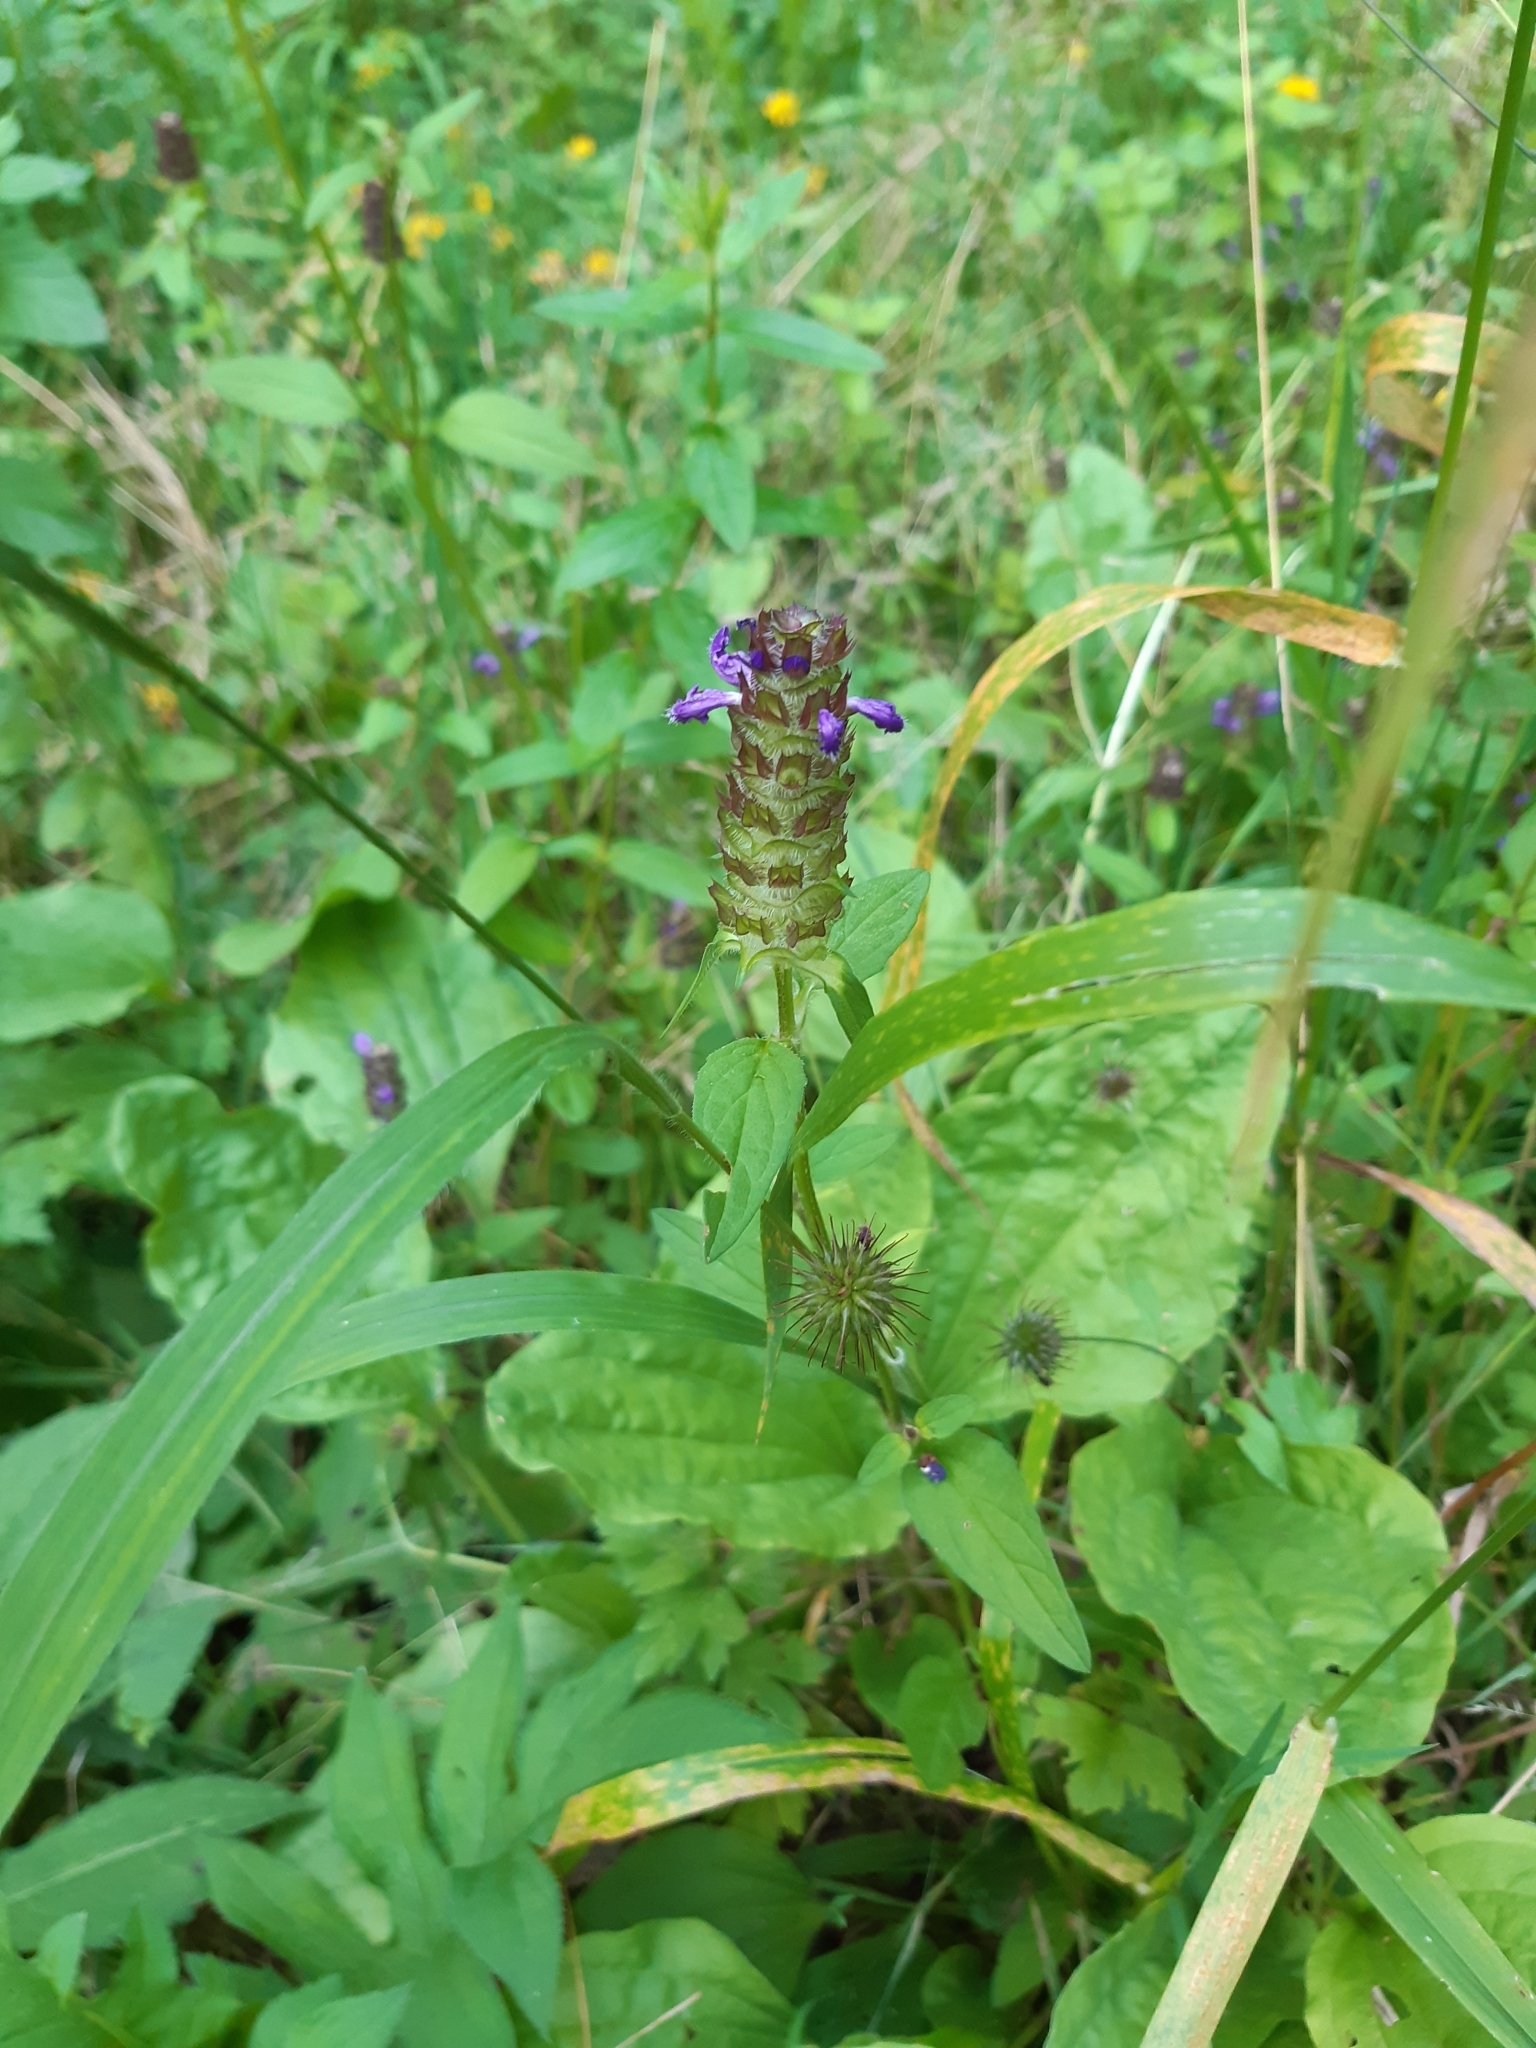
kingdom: Plantae
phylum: Tracheophyta
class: Magnoliopsida
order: Lamiales
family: Lamiaceae
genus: Prunella
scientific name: Prunella vulgaris
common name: Heal-all
